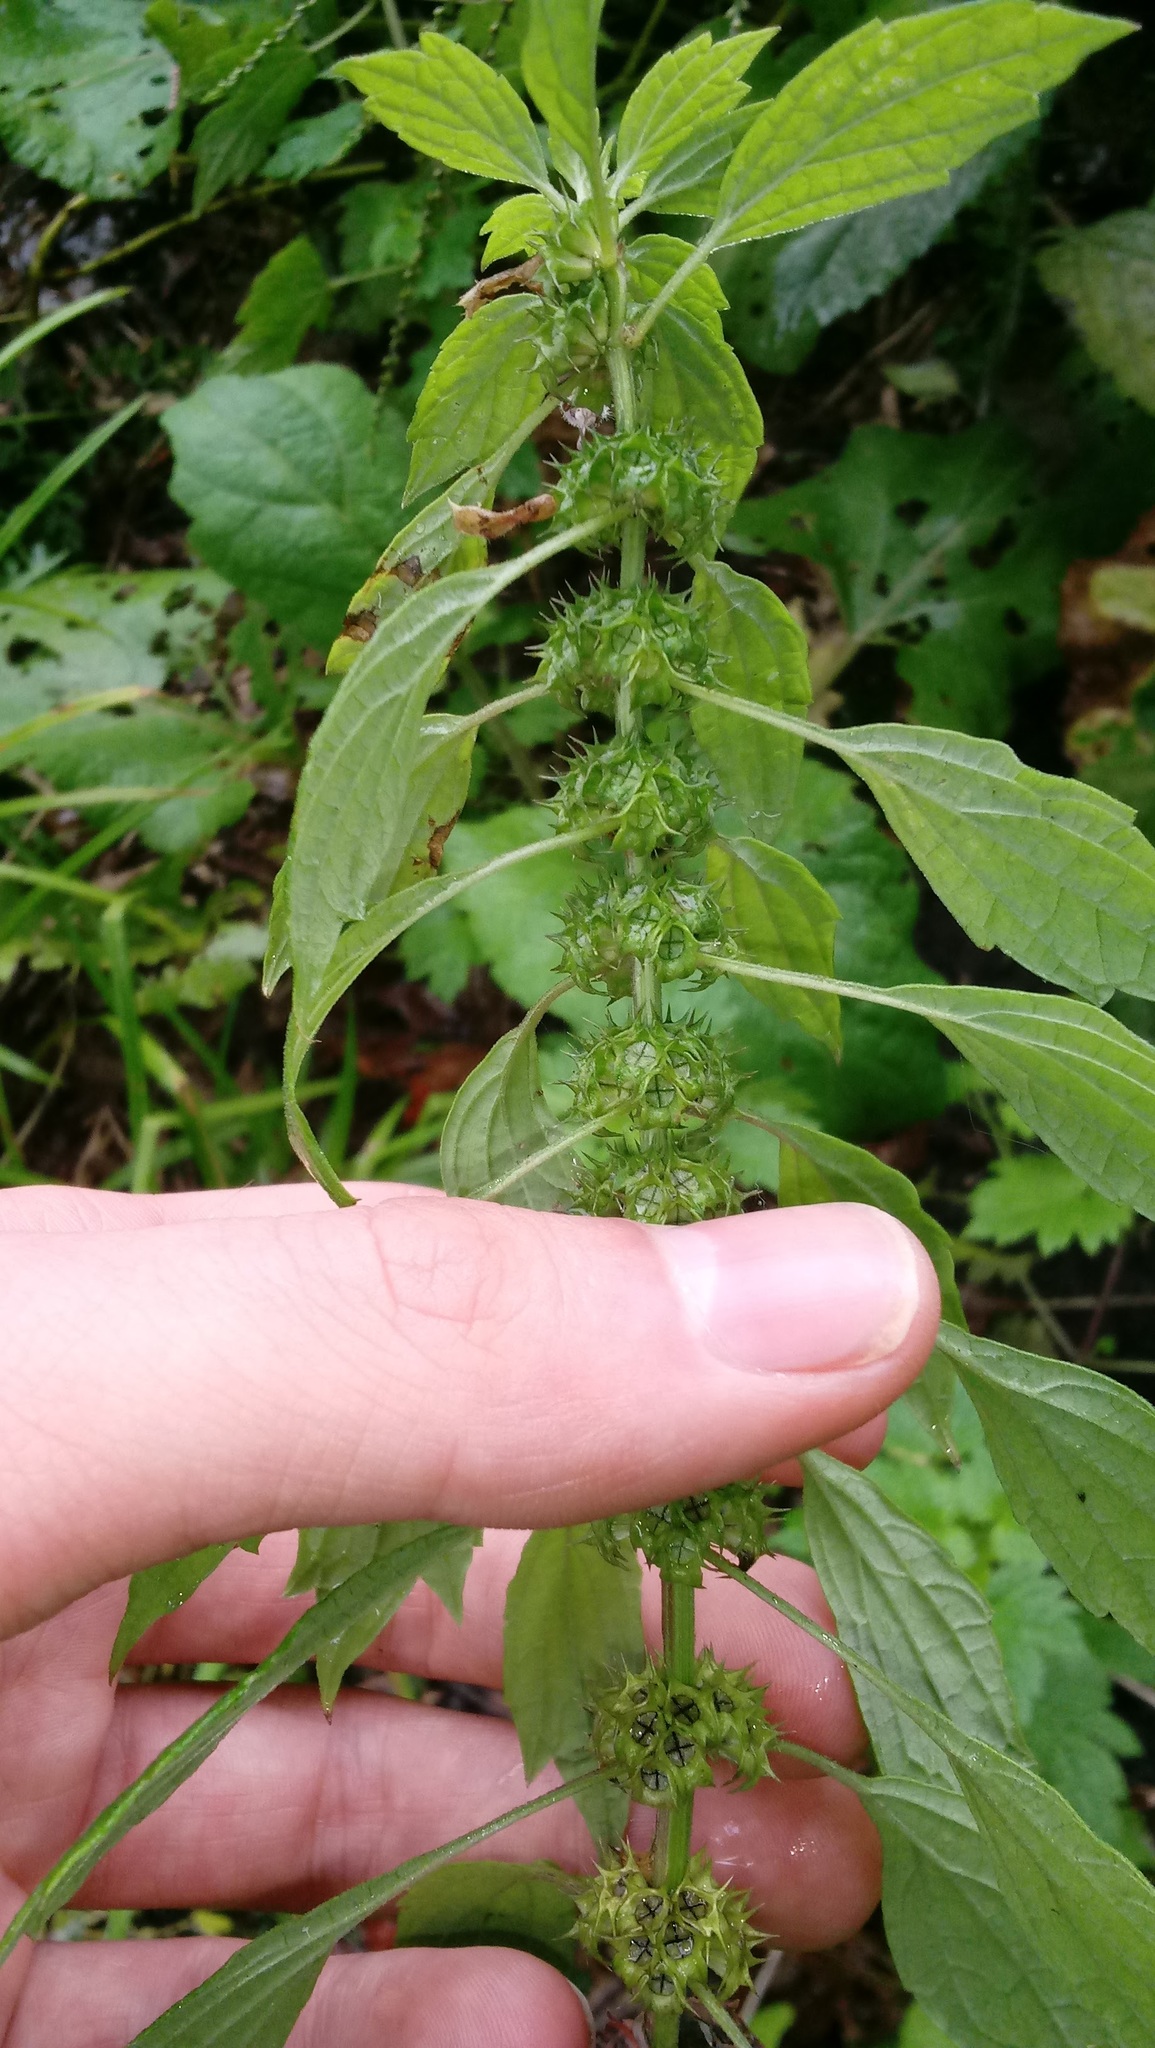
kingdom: Plantae
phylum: Tracheophyta
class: Magnoliopsida
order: Lamiales
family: Lamiaceae
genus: Leonurus
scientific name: Leonurus cardiaca
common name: Motherwort
